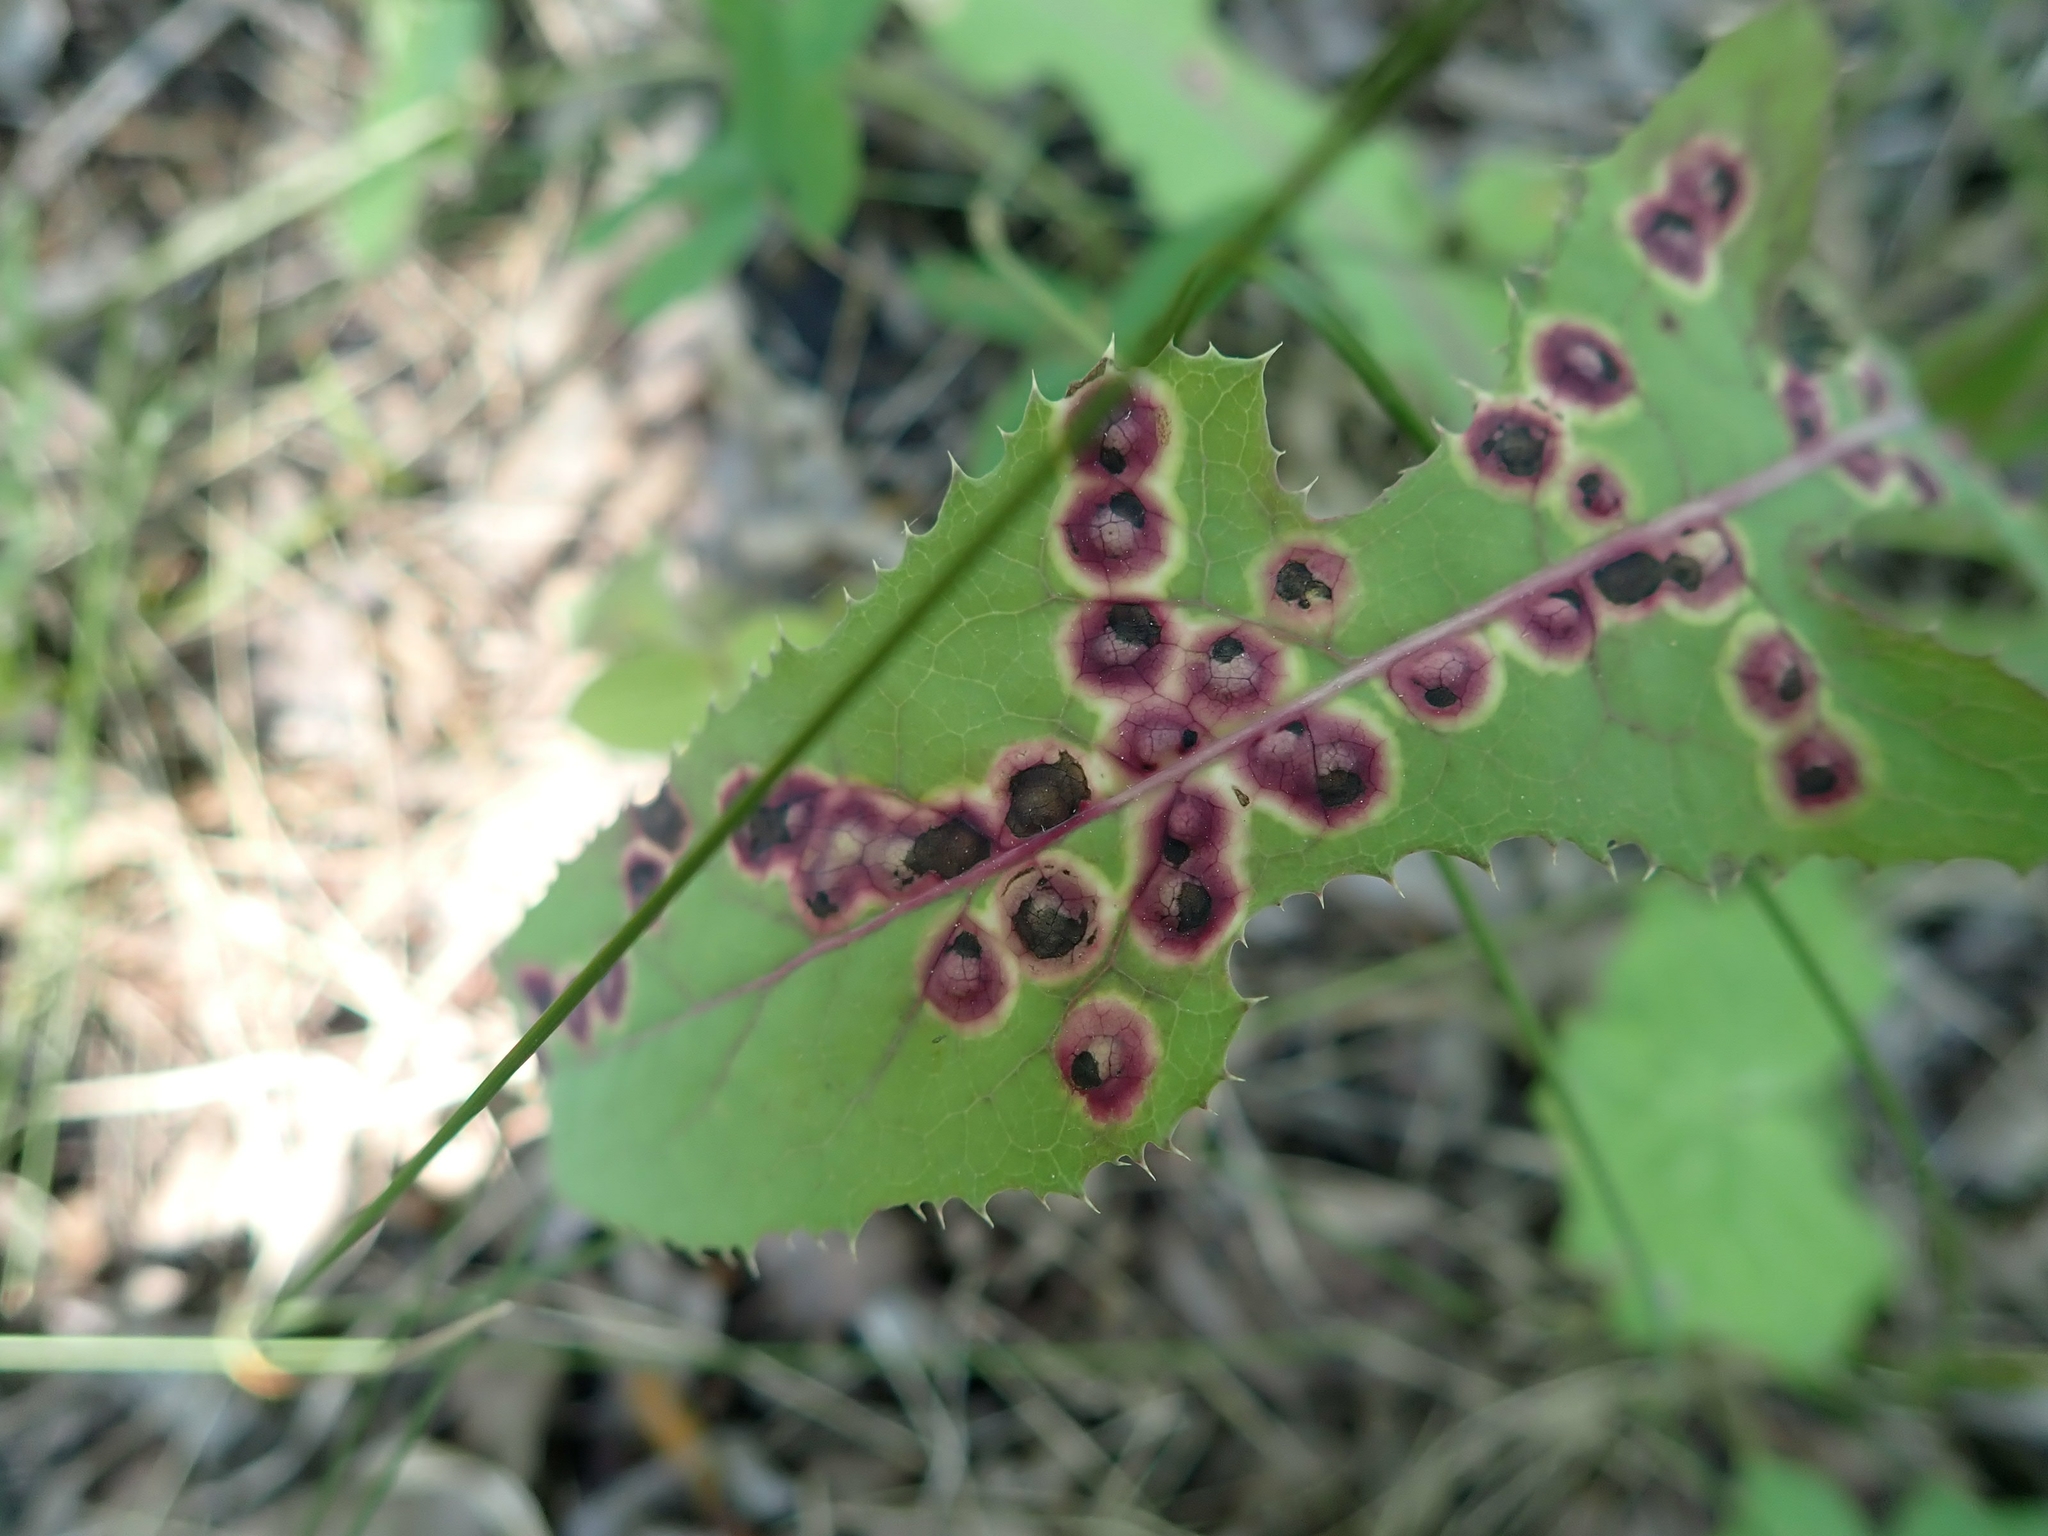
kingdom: Animalia
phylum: Arthropoda
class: Insecta
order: Diptera
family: Cecidomyiidae
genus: Cystiphora
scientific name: Cystiphora sonchi
